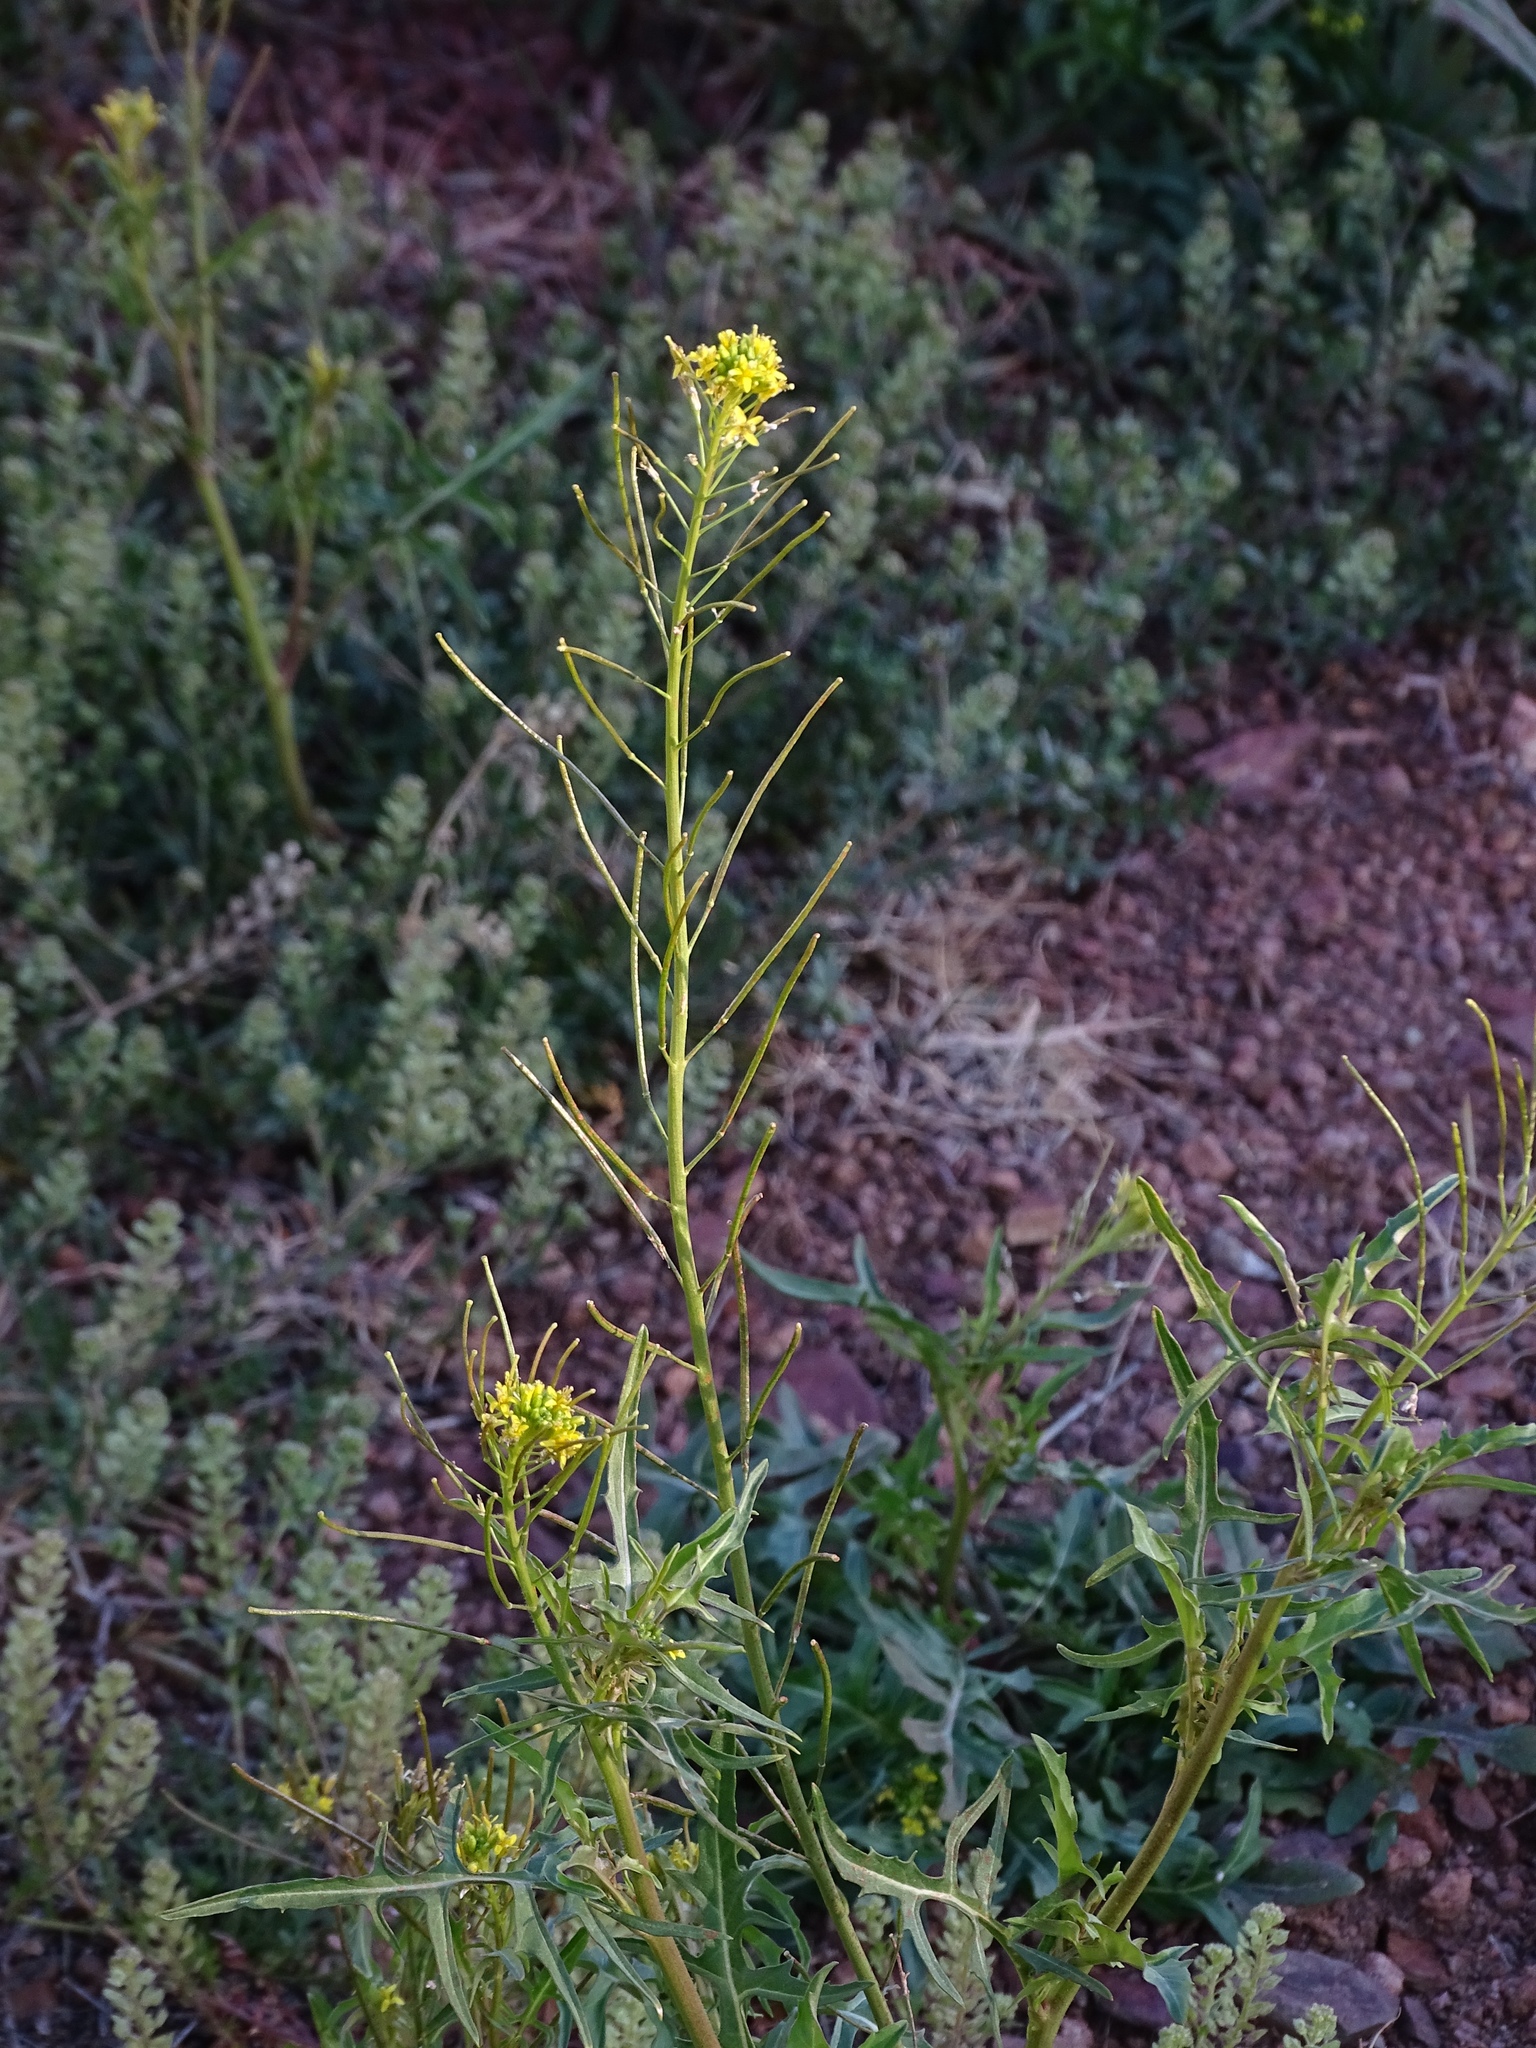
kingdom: Plantae
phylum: Tracheophyta
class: Magnoliopsida
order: Brassicales
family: Brassicaceae
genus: Sisymbrium
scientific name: Sisymbrium irio
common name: London rocket
